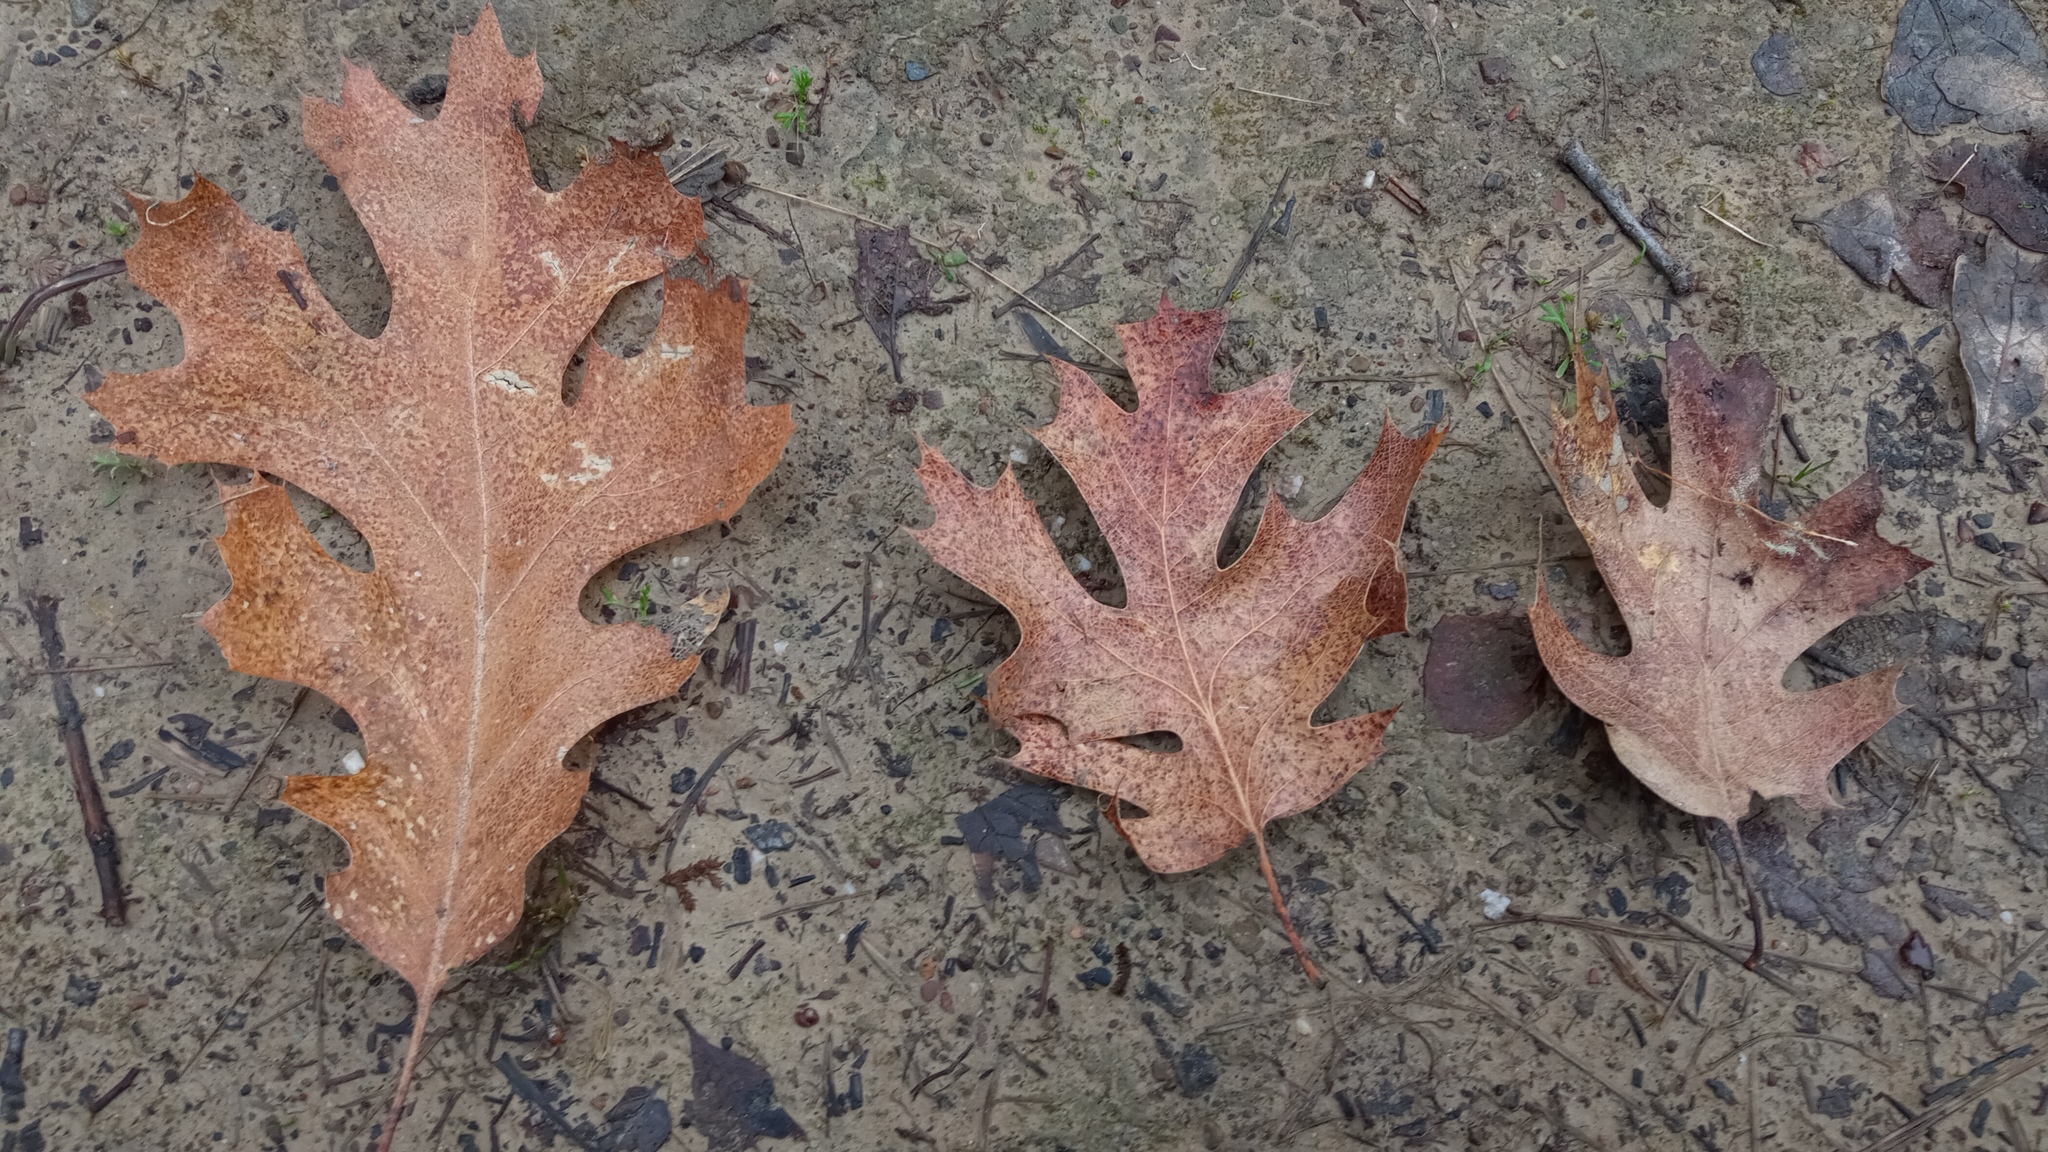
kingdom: Plantae
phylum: Tracheophyta
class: Magnoliopsida
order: Fagales
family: Fagaceae
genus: Quercus
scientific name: Quercus kelloggii
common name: California black oak
